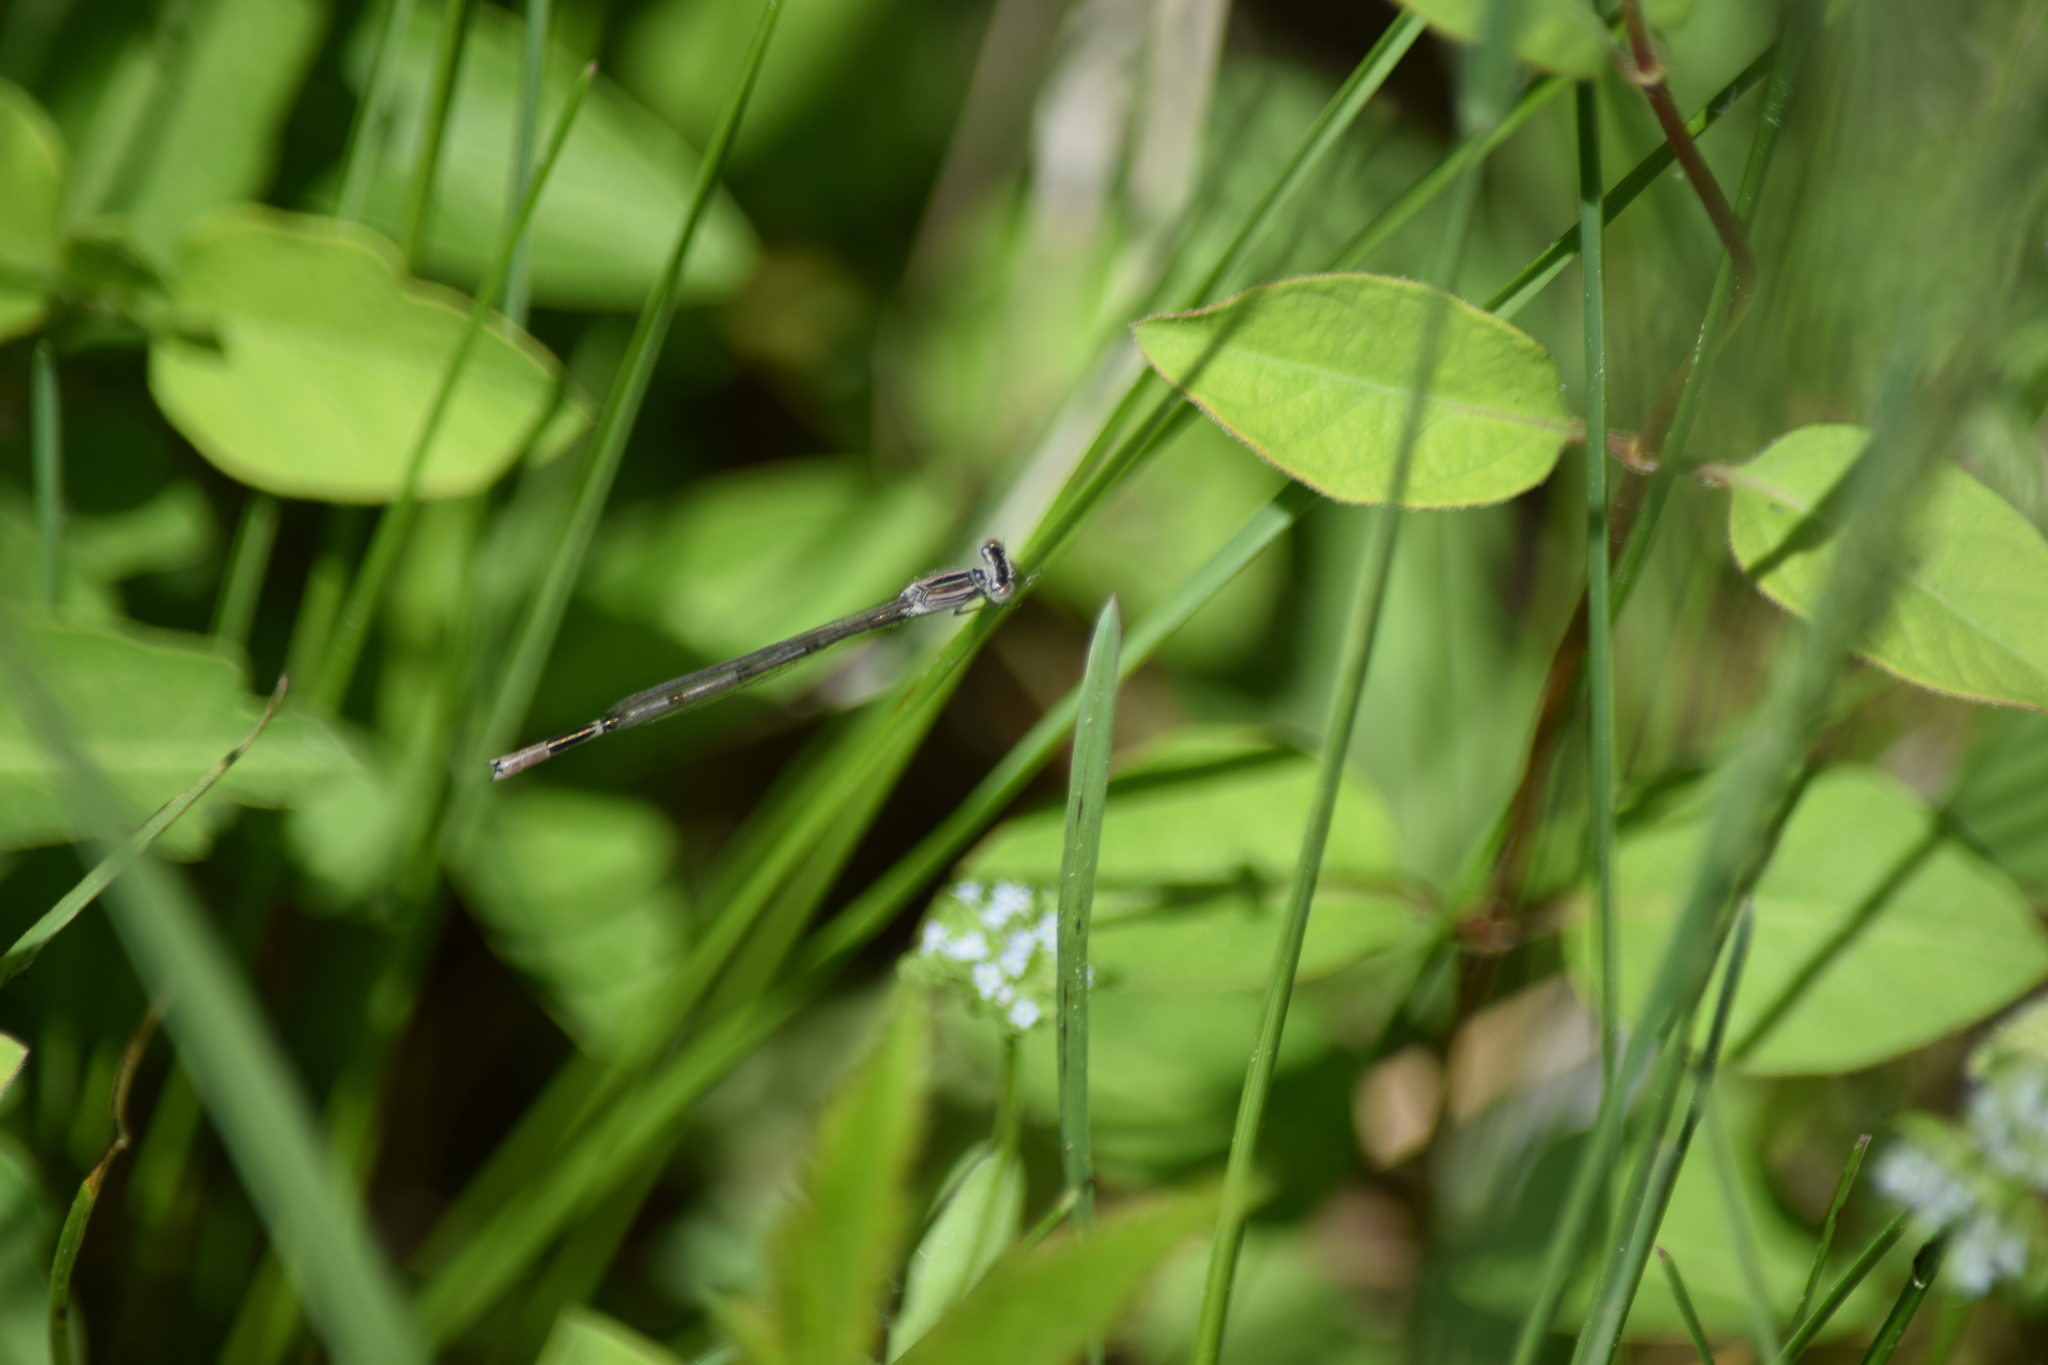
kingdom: Animalia
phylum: Arthropoda
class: Insecta
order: Odonata
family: Coenagrionidae
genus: Enallagma
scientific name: Enallagma basidens
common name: Double-striped bluet
